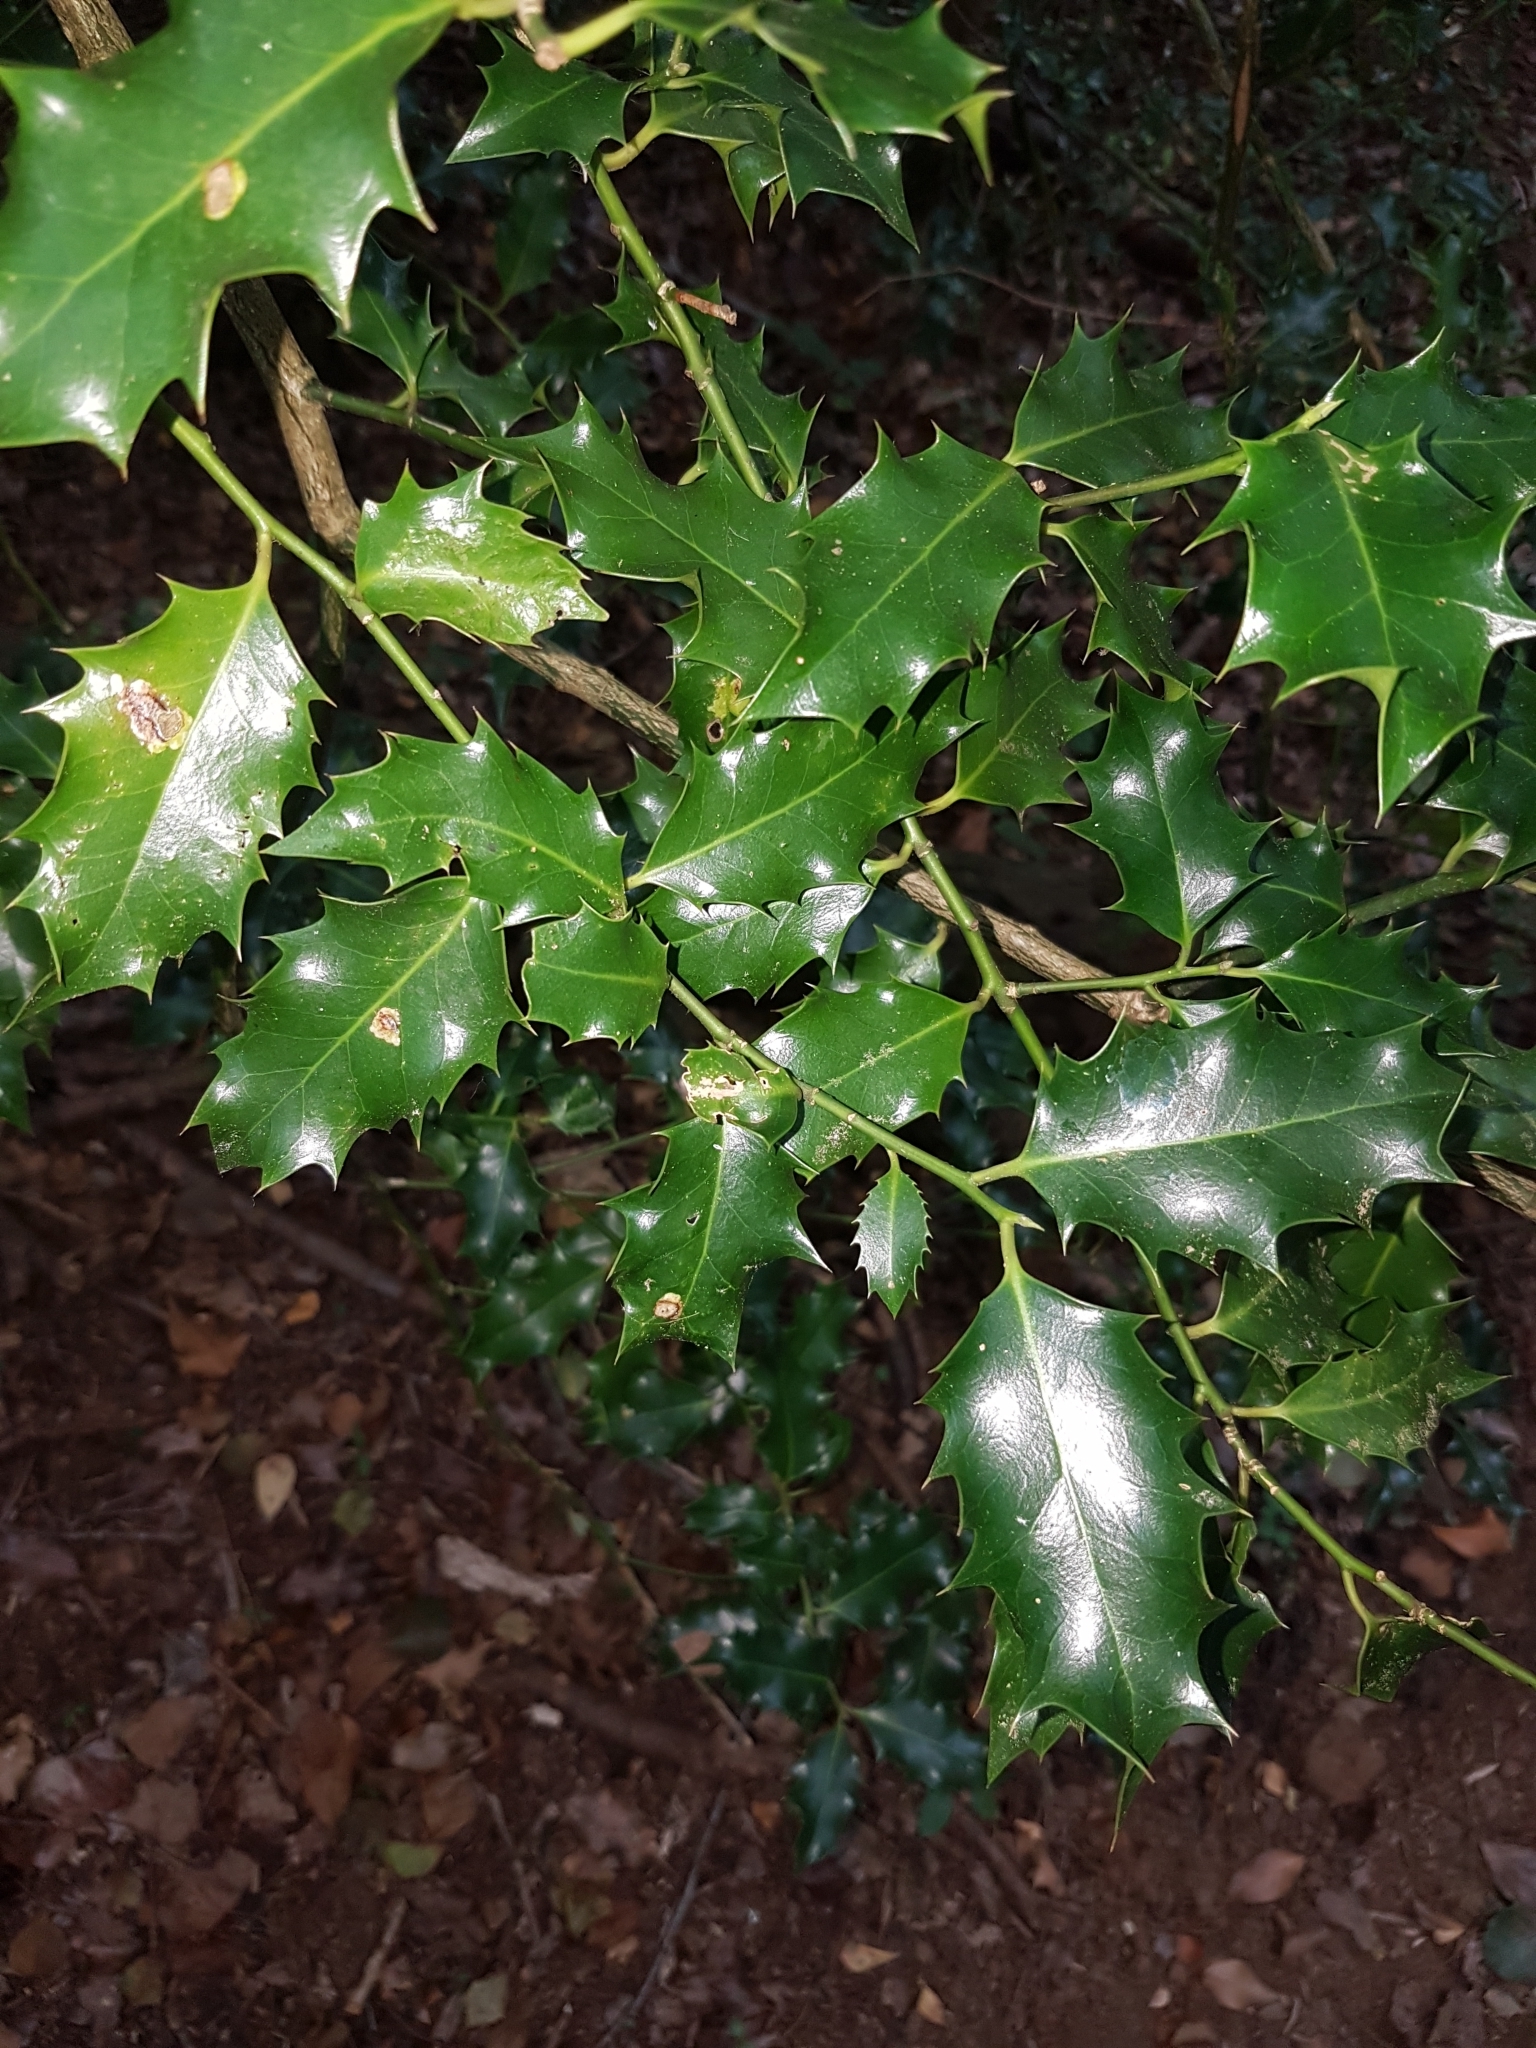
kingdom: Plantae
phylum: Tracheophyta
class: Magnoliopsida
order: Aquifoliales
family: Aquifoliaceae
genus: Ilex
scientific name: Ilex aquifolium
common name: English holly
